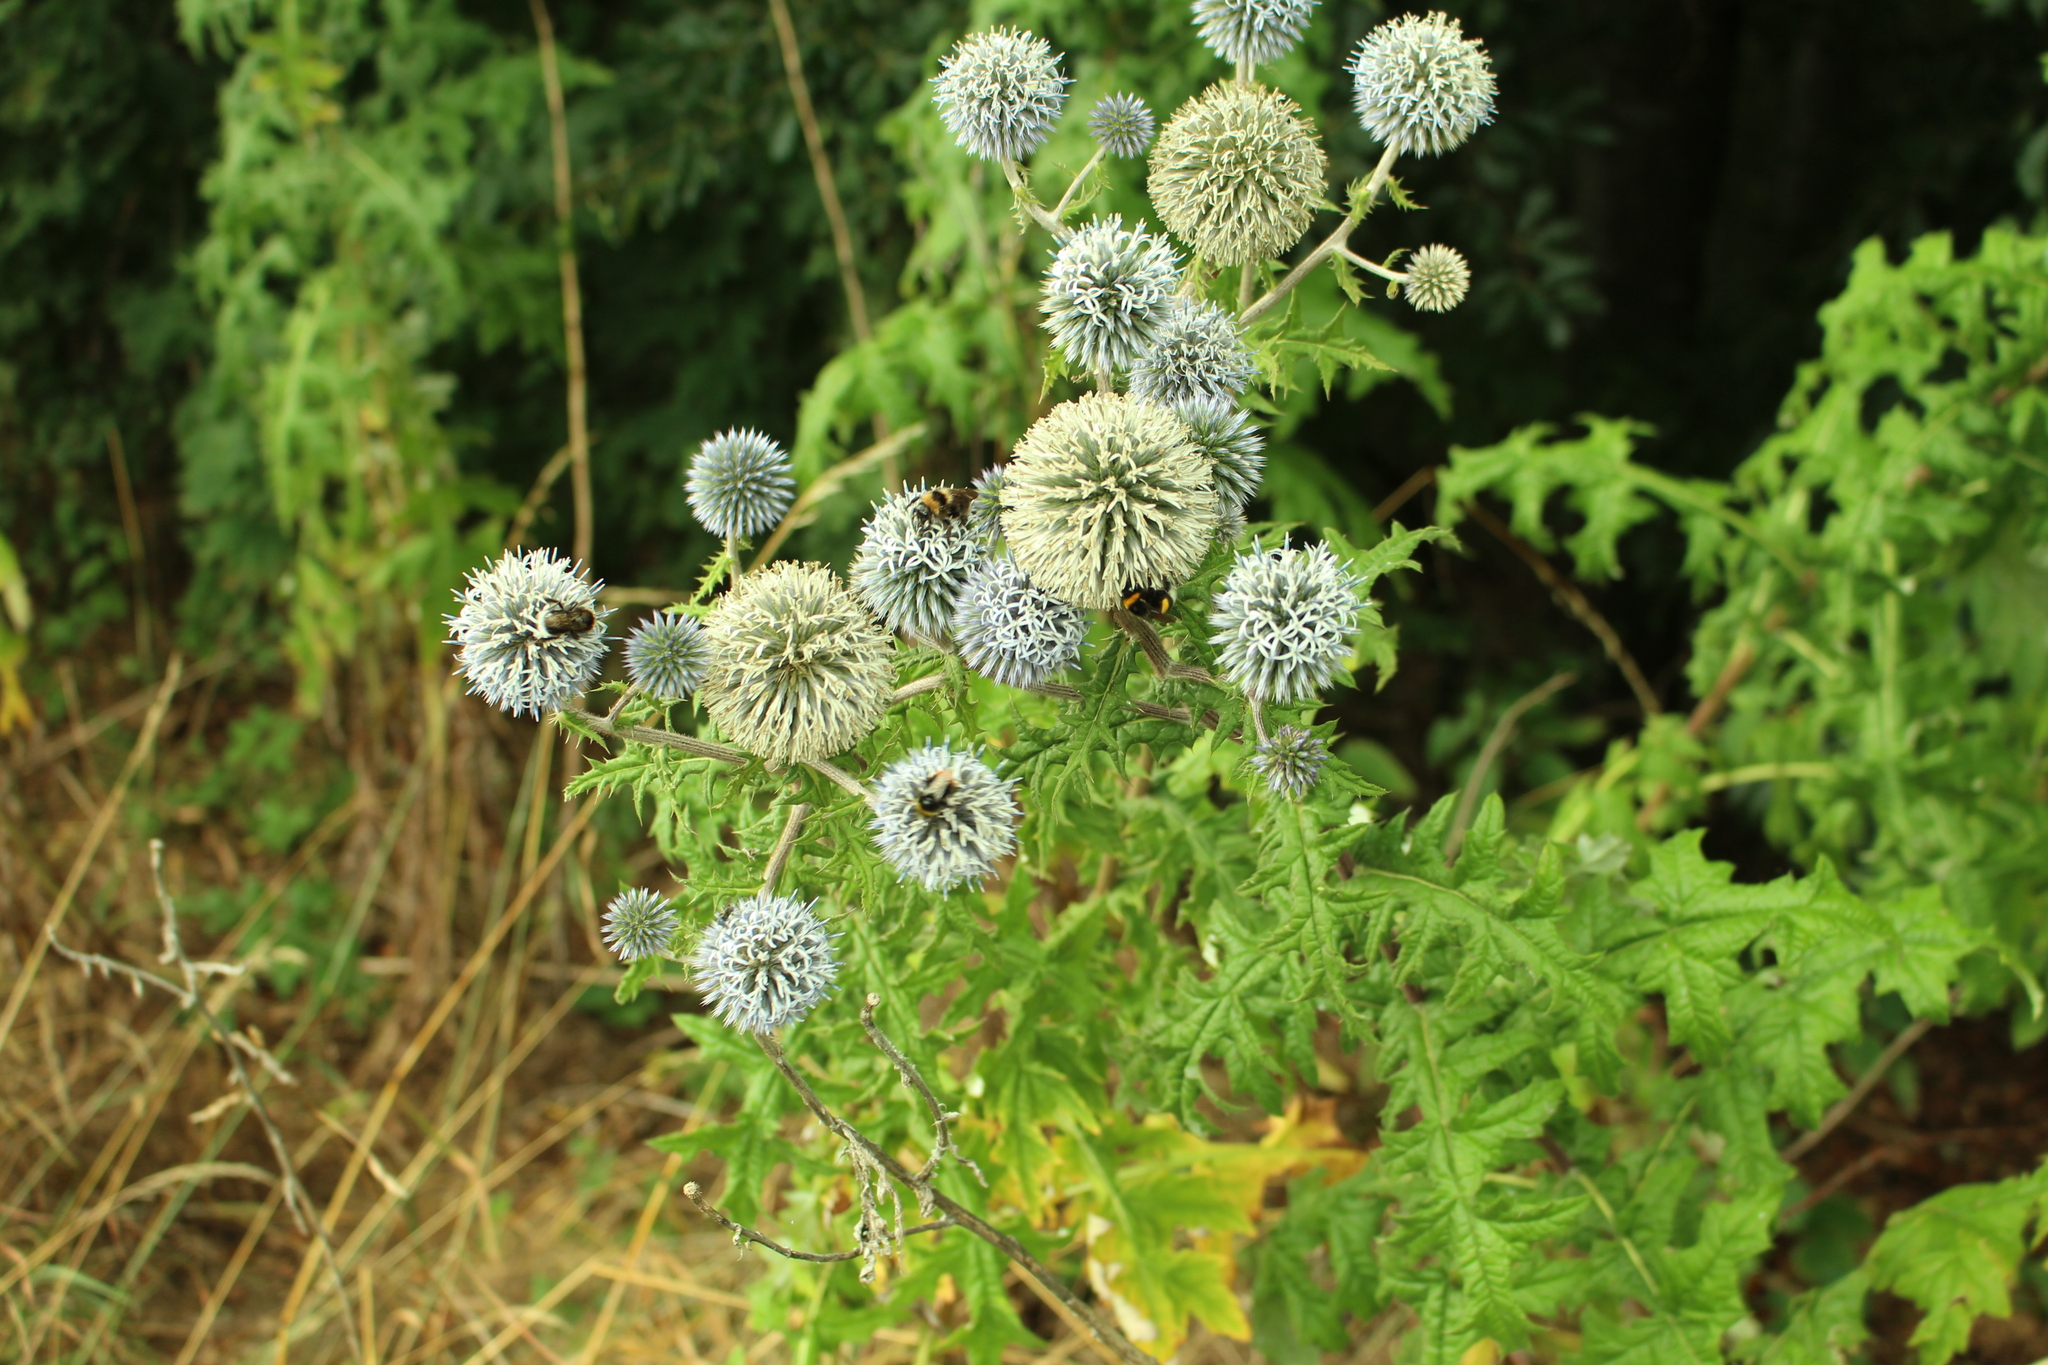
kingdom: Plantae
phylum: Tracheophyta
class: Magnoliopsida
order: Asterales
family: Asteraceae
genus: Echinops
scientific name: Echinops sphaerocephalus
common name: Glandular globe-thistle
